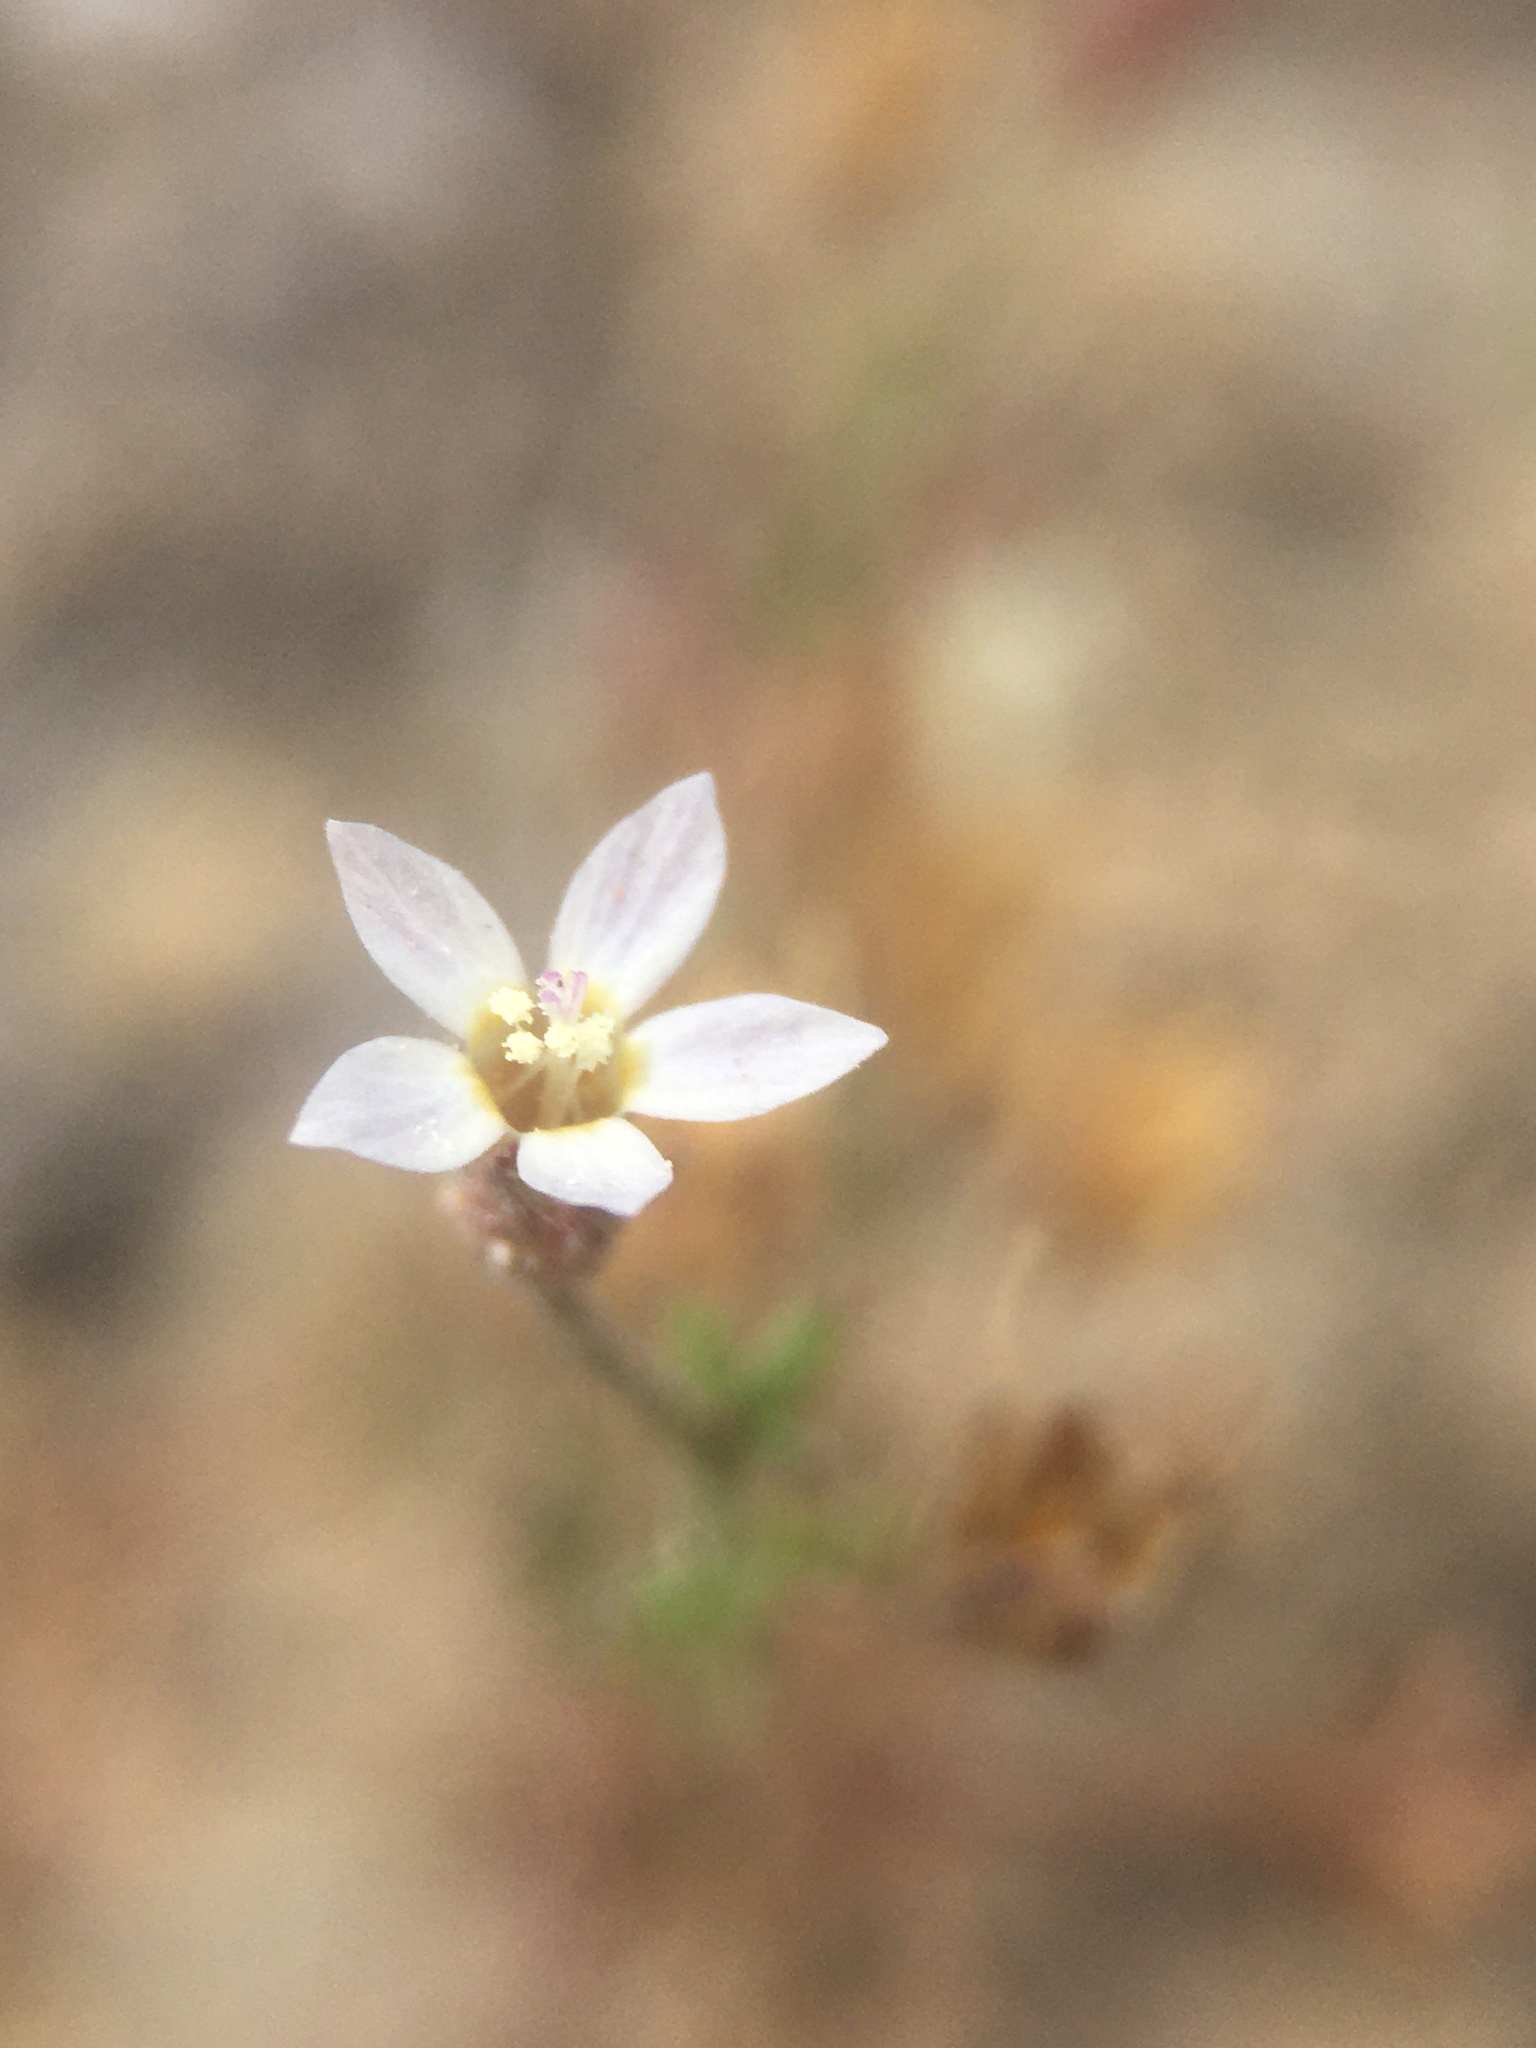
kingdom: Plantae
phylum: Tracheophyta
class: Magnoliopsida
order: Ericales
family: Polemoniaceae
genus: Dayia
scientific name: Dayia glutinosa
